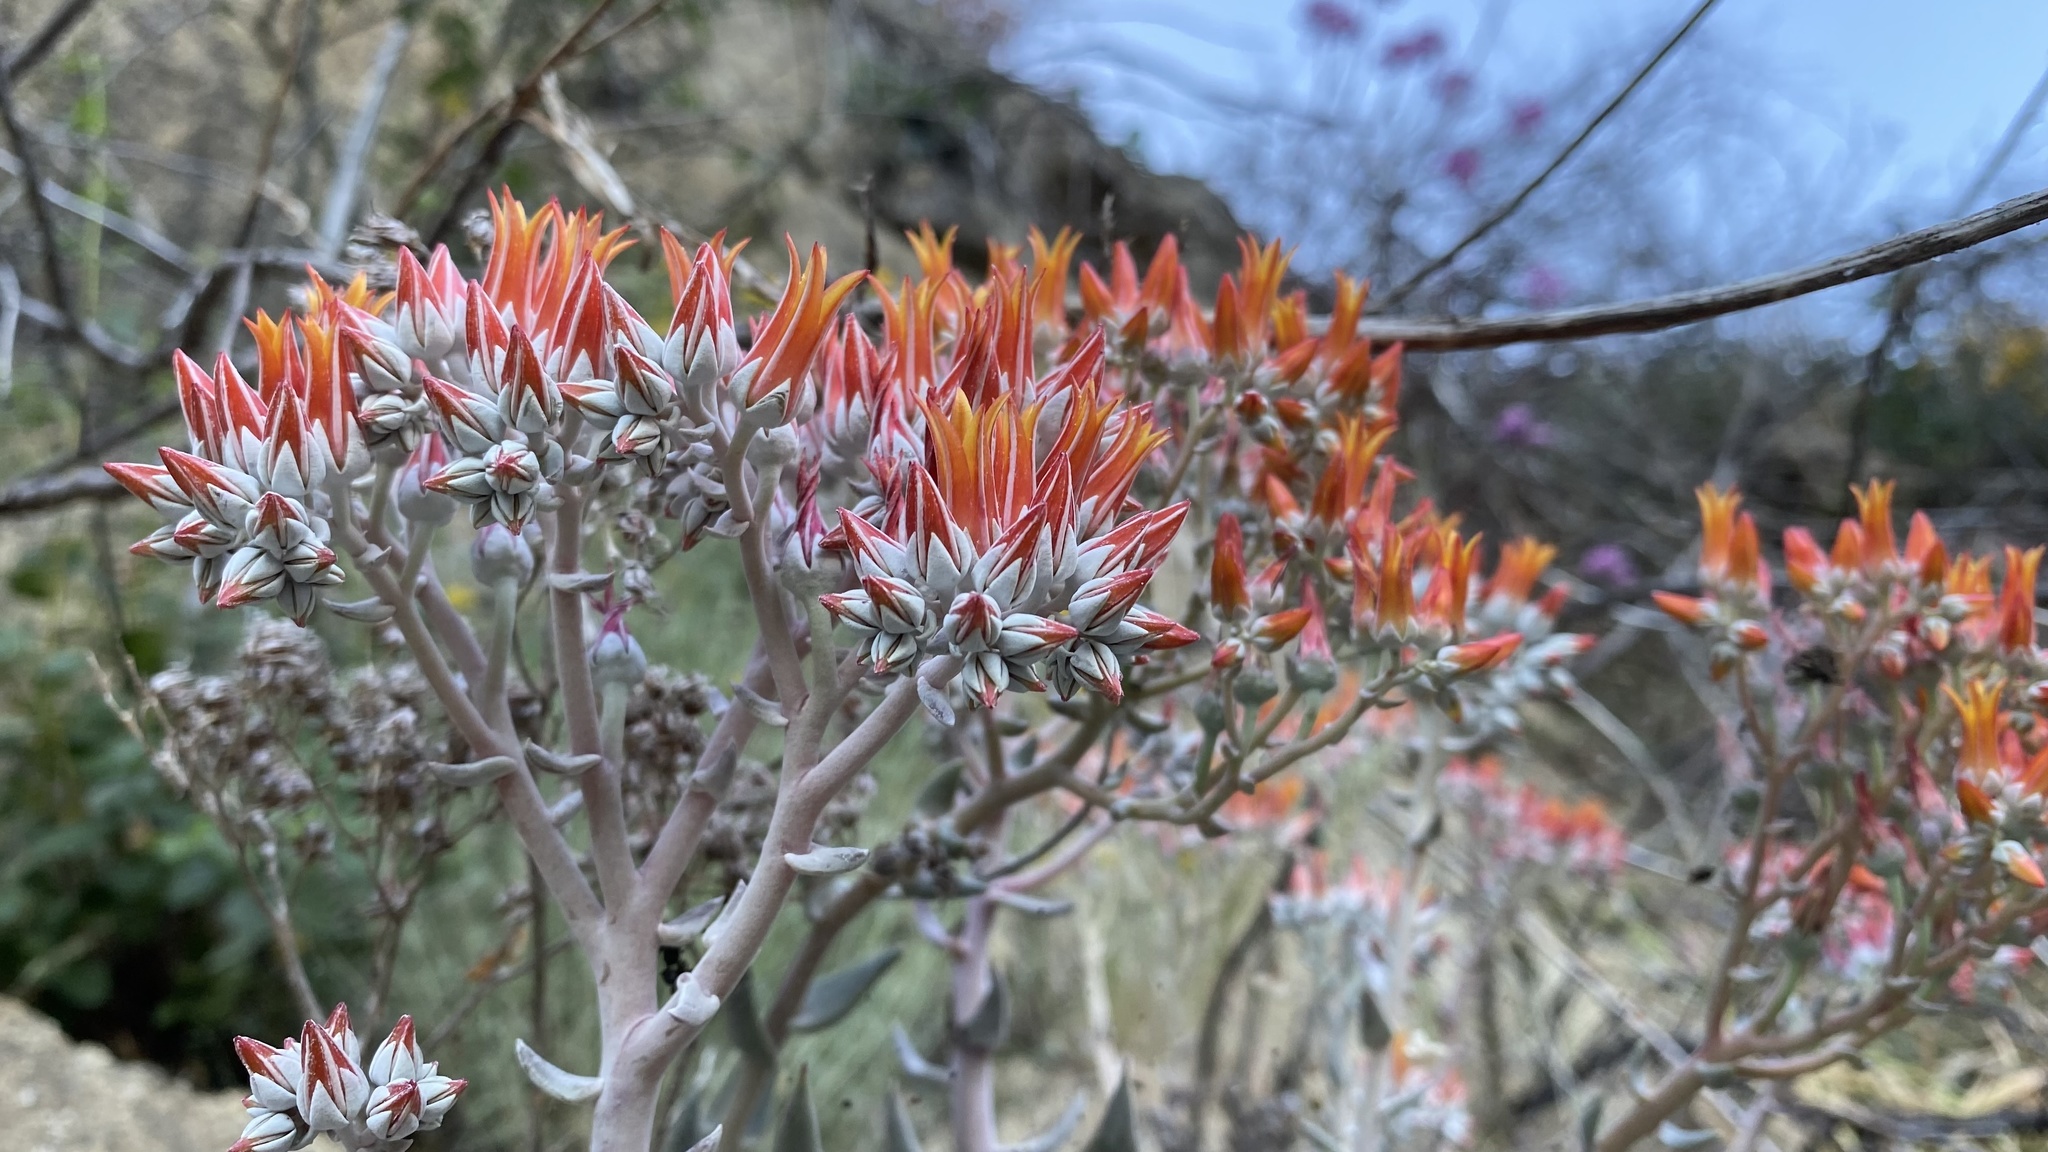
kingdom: Plantae
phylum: Tracheophyta
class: Magnoliopsida
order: Saxifragales
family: Crassulaceae
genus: Dudleya
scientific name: Dudleya cymosa
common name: Canyon dudleya
